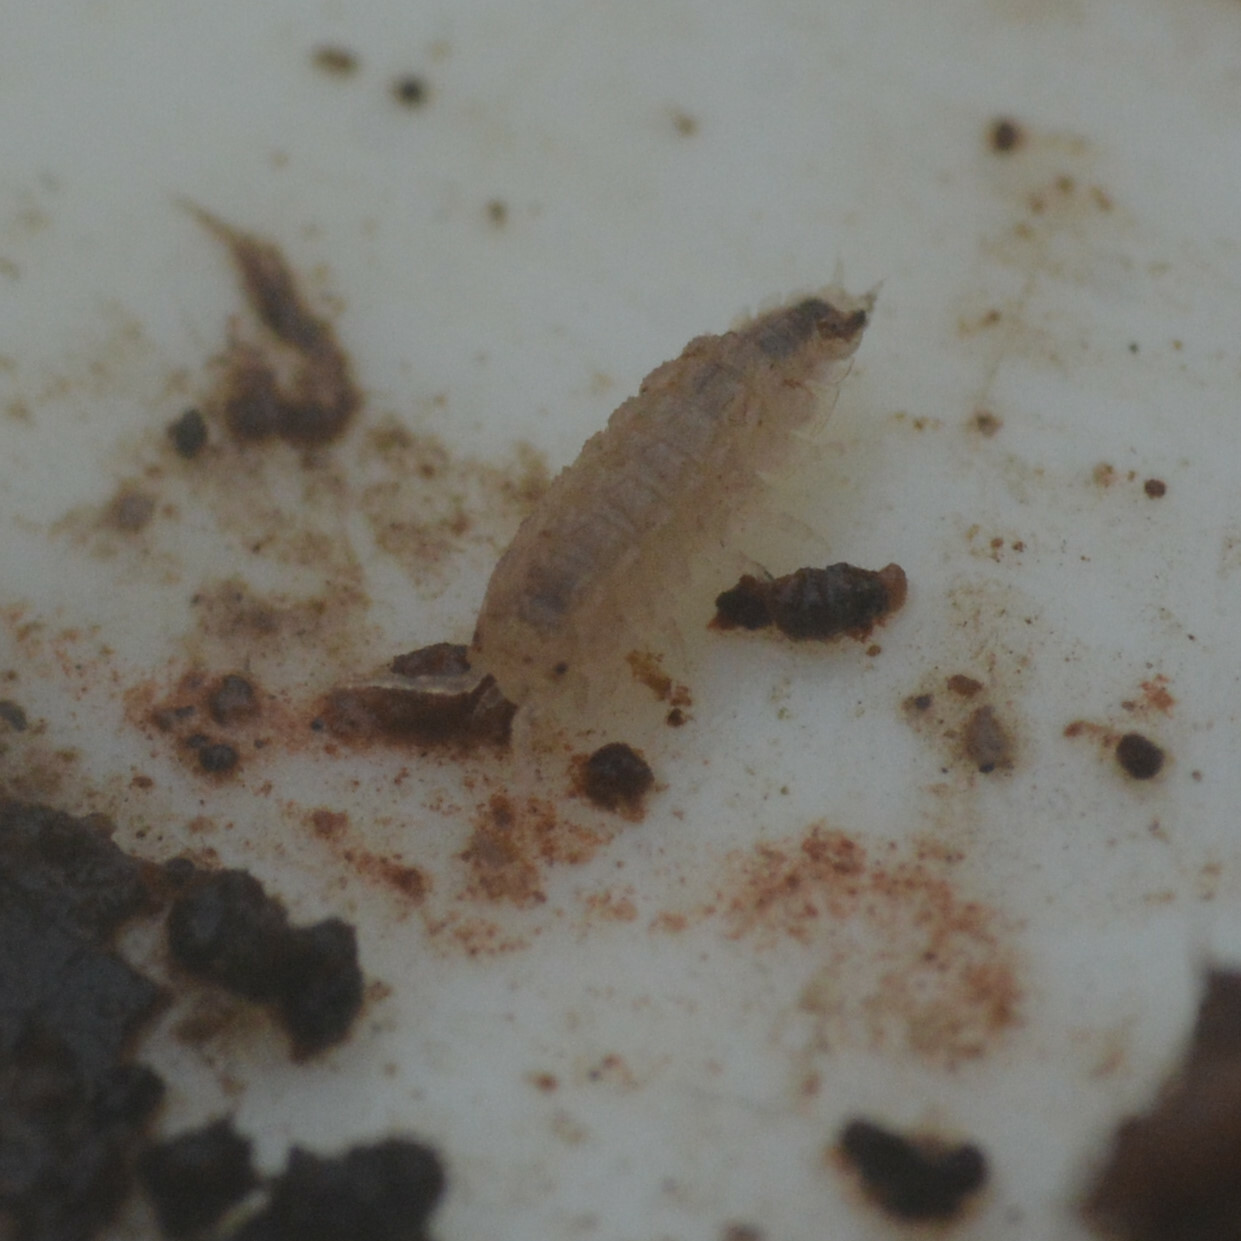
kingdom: Animalia
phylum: Arthropoda
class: Malacostraca
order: Isopoda
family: Trichoniscidae
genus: Haplophthalmus
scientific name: Haplophthalmus danicus
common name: Pillbug
